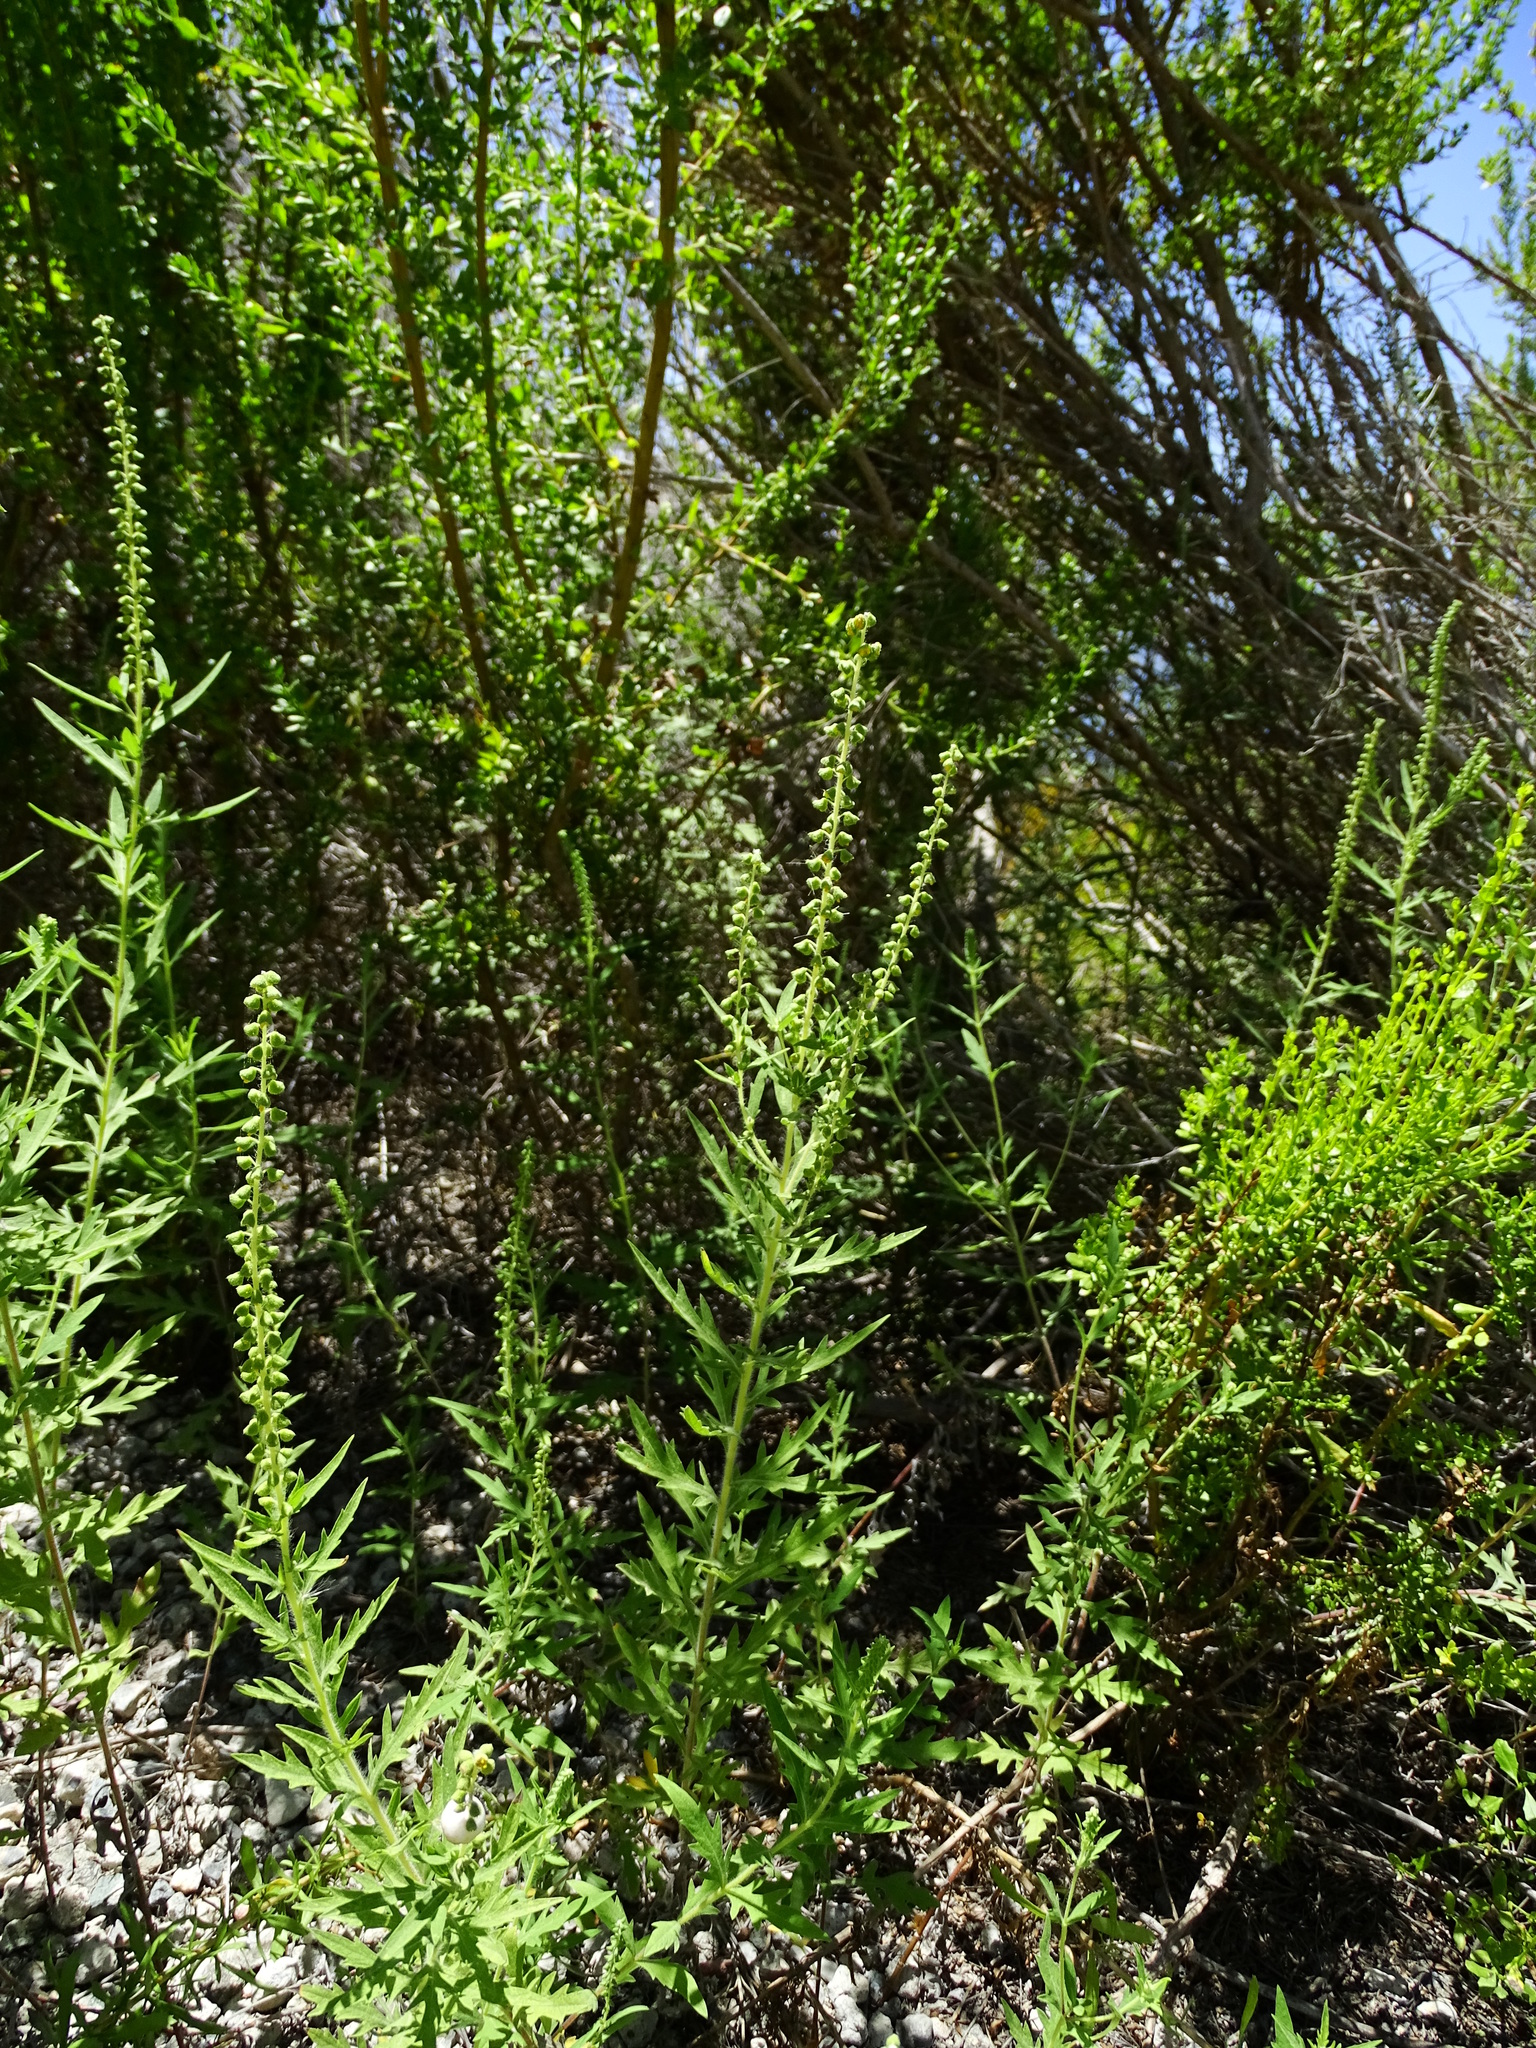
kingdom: Plantae
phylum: Tracheophyta
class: Magnoliopsida
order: Asterales
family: Asteraceae
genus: Ambrosia
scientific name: Ambrosia psilostachya
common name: Perennial ragweed
